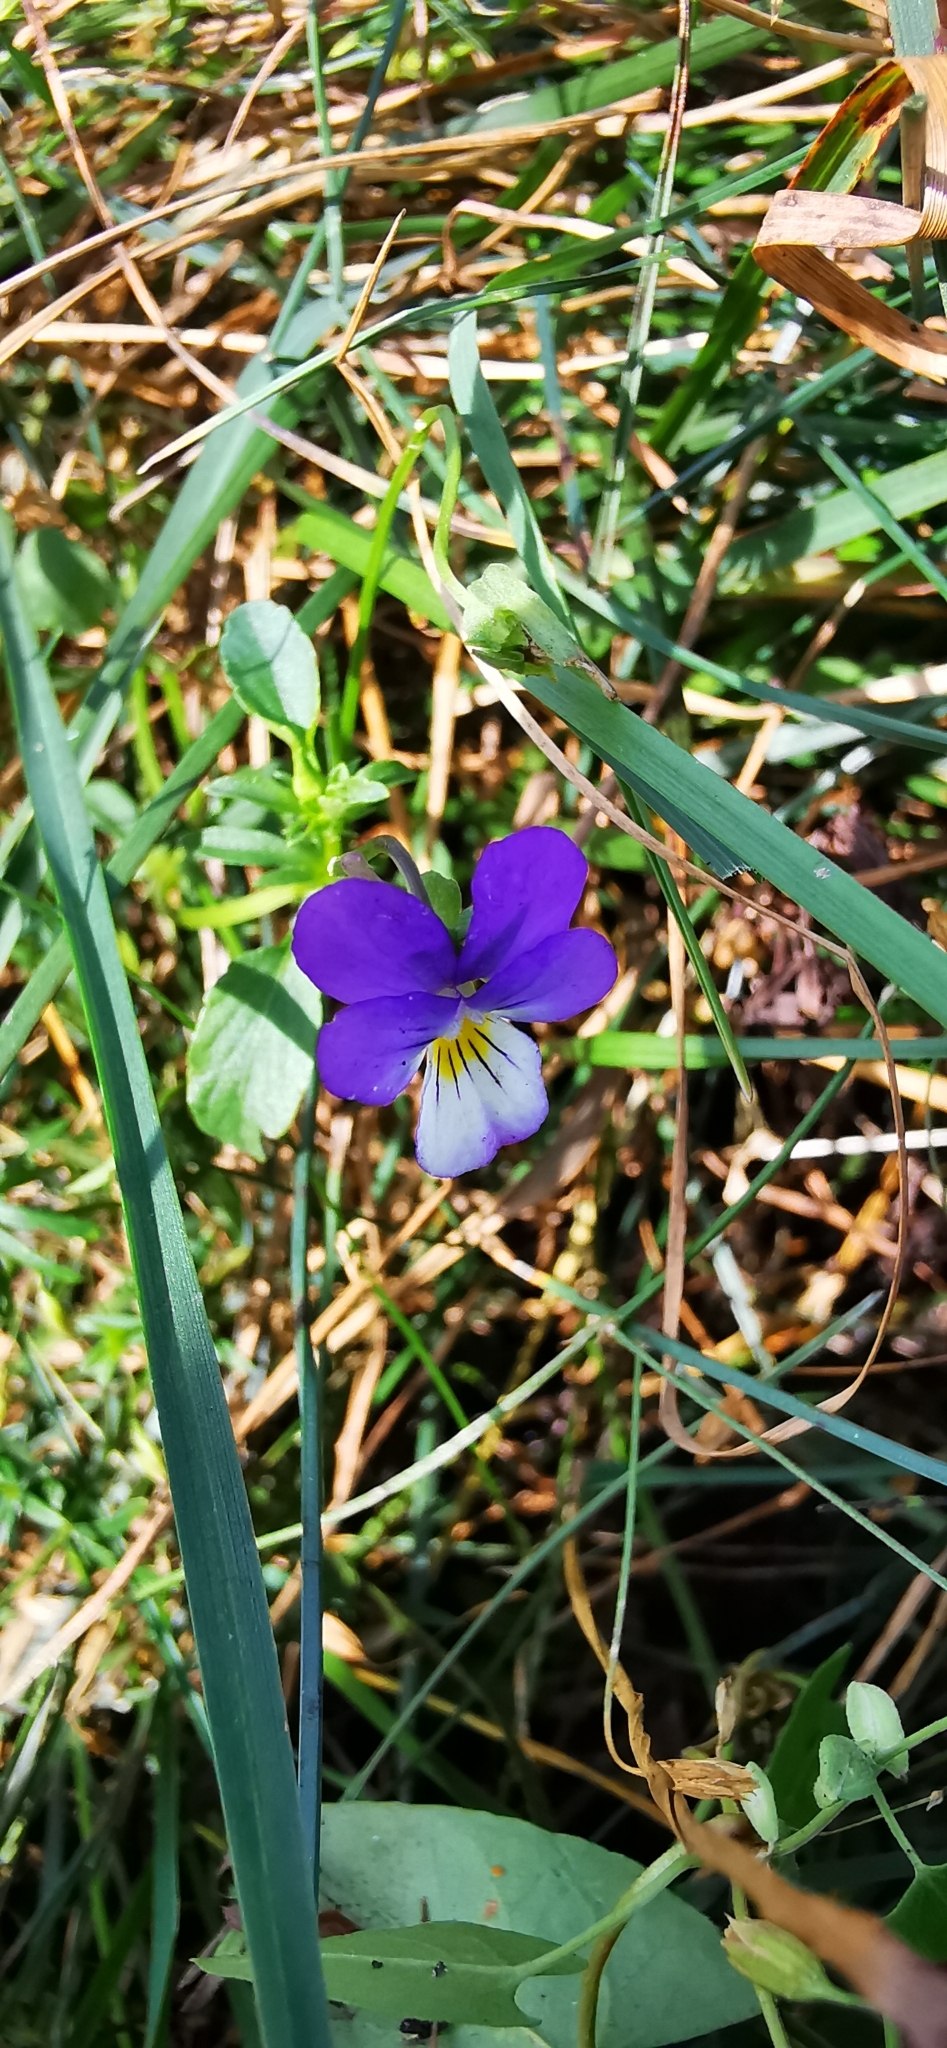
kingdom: Plantae
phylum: Tracheophyta
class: Magnoliopsida
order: Malpighiales
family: Violaceae
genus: Viola
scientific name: Viola tricolor
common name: Pansy
